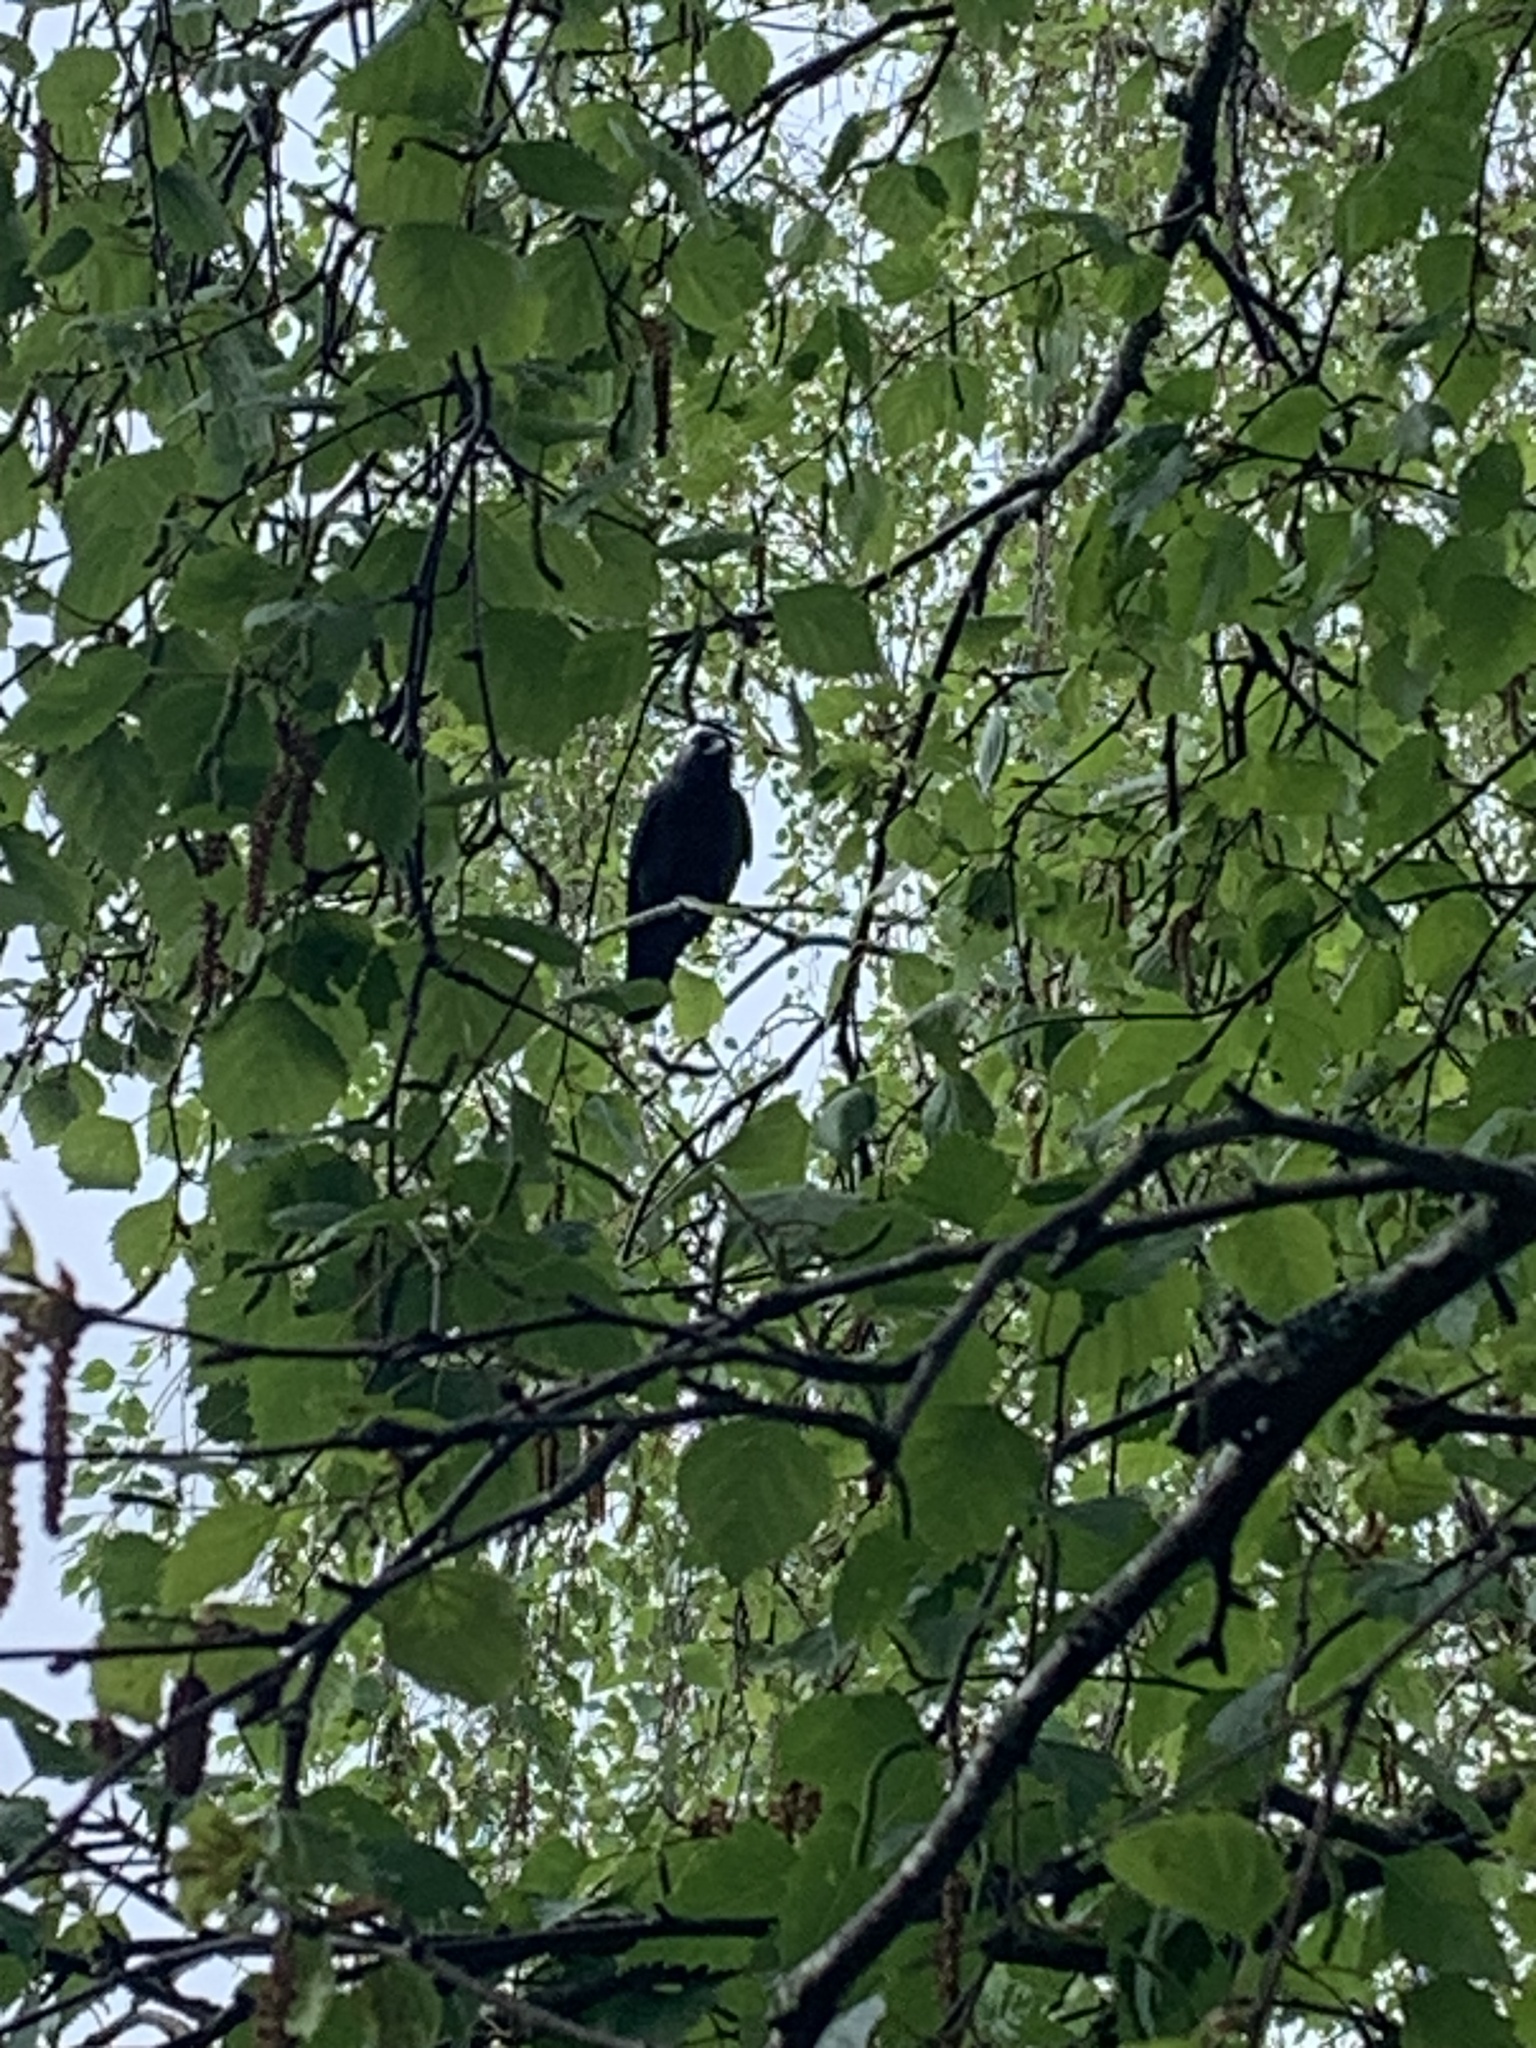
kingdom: Animalia
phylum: Chordata
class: Aves
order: Passeriformes
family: Corvidae
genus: Coloeus
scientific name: Coloeus monedula
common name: Western jackdaw
